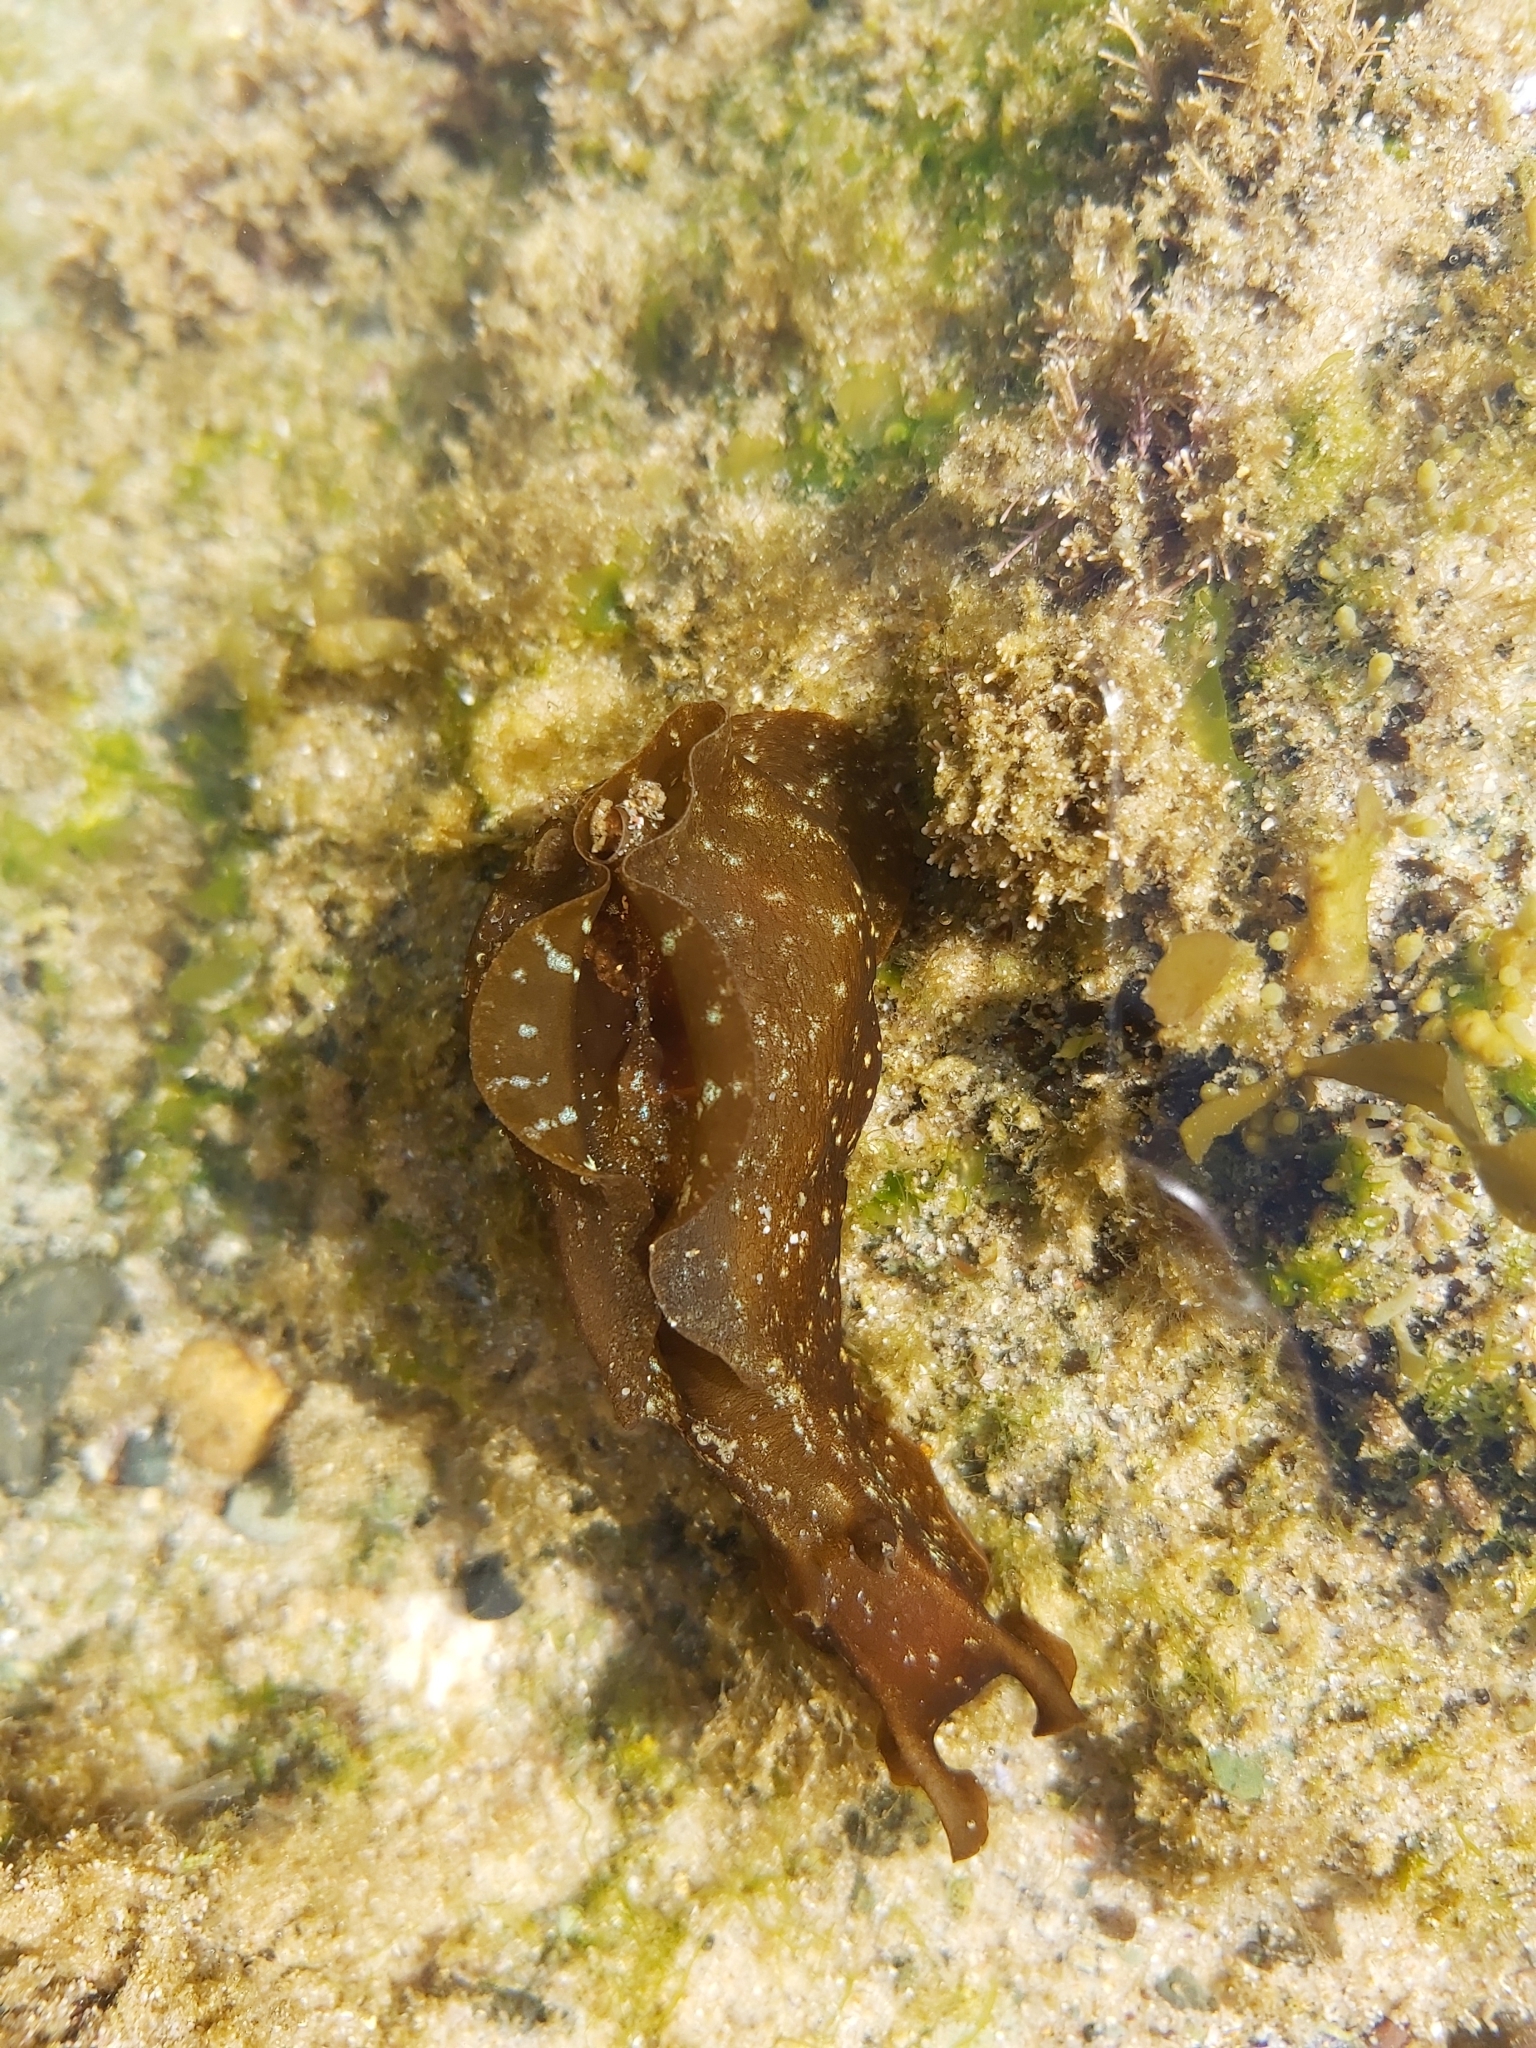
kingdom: Animalia
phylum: Mollusca
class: Gastropoda
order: Aplysiida
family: Aplysiidae
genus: Aplysia
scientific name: Aplysia juliana
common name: Walking sea hare
